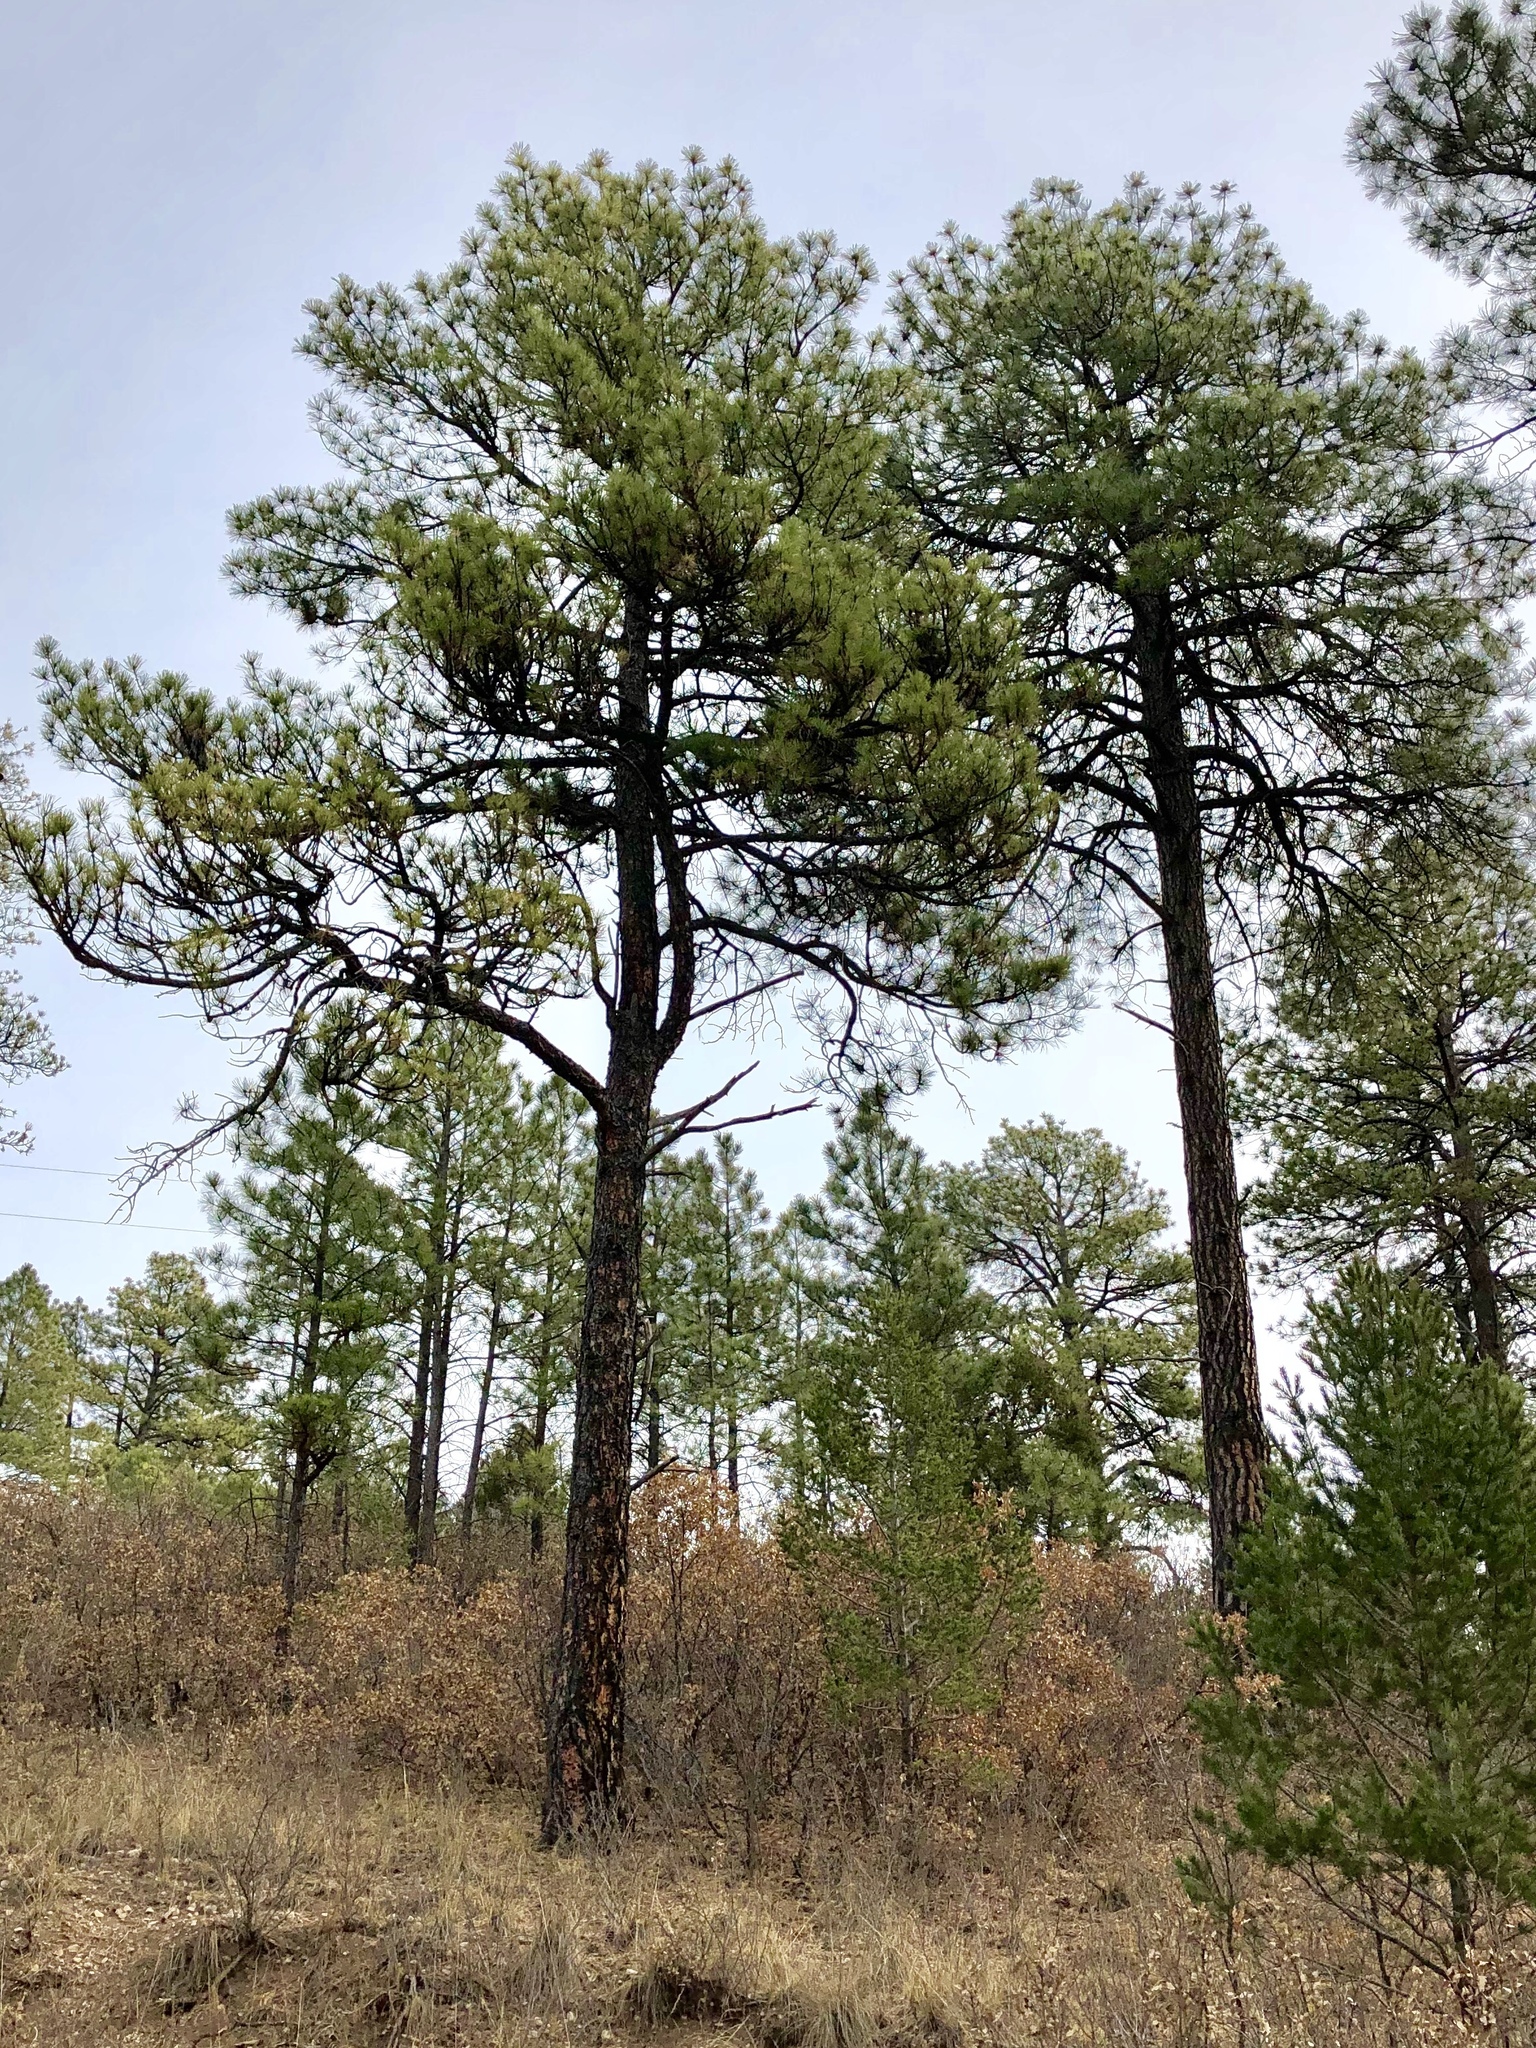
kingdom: Plantae
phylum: Tracheophyta
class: Pinopsida
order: Pinales
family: Pinaceae
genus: Pinus
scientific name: Pinus ponderosa
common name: Western yellow-pine
